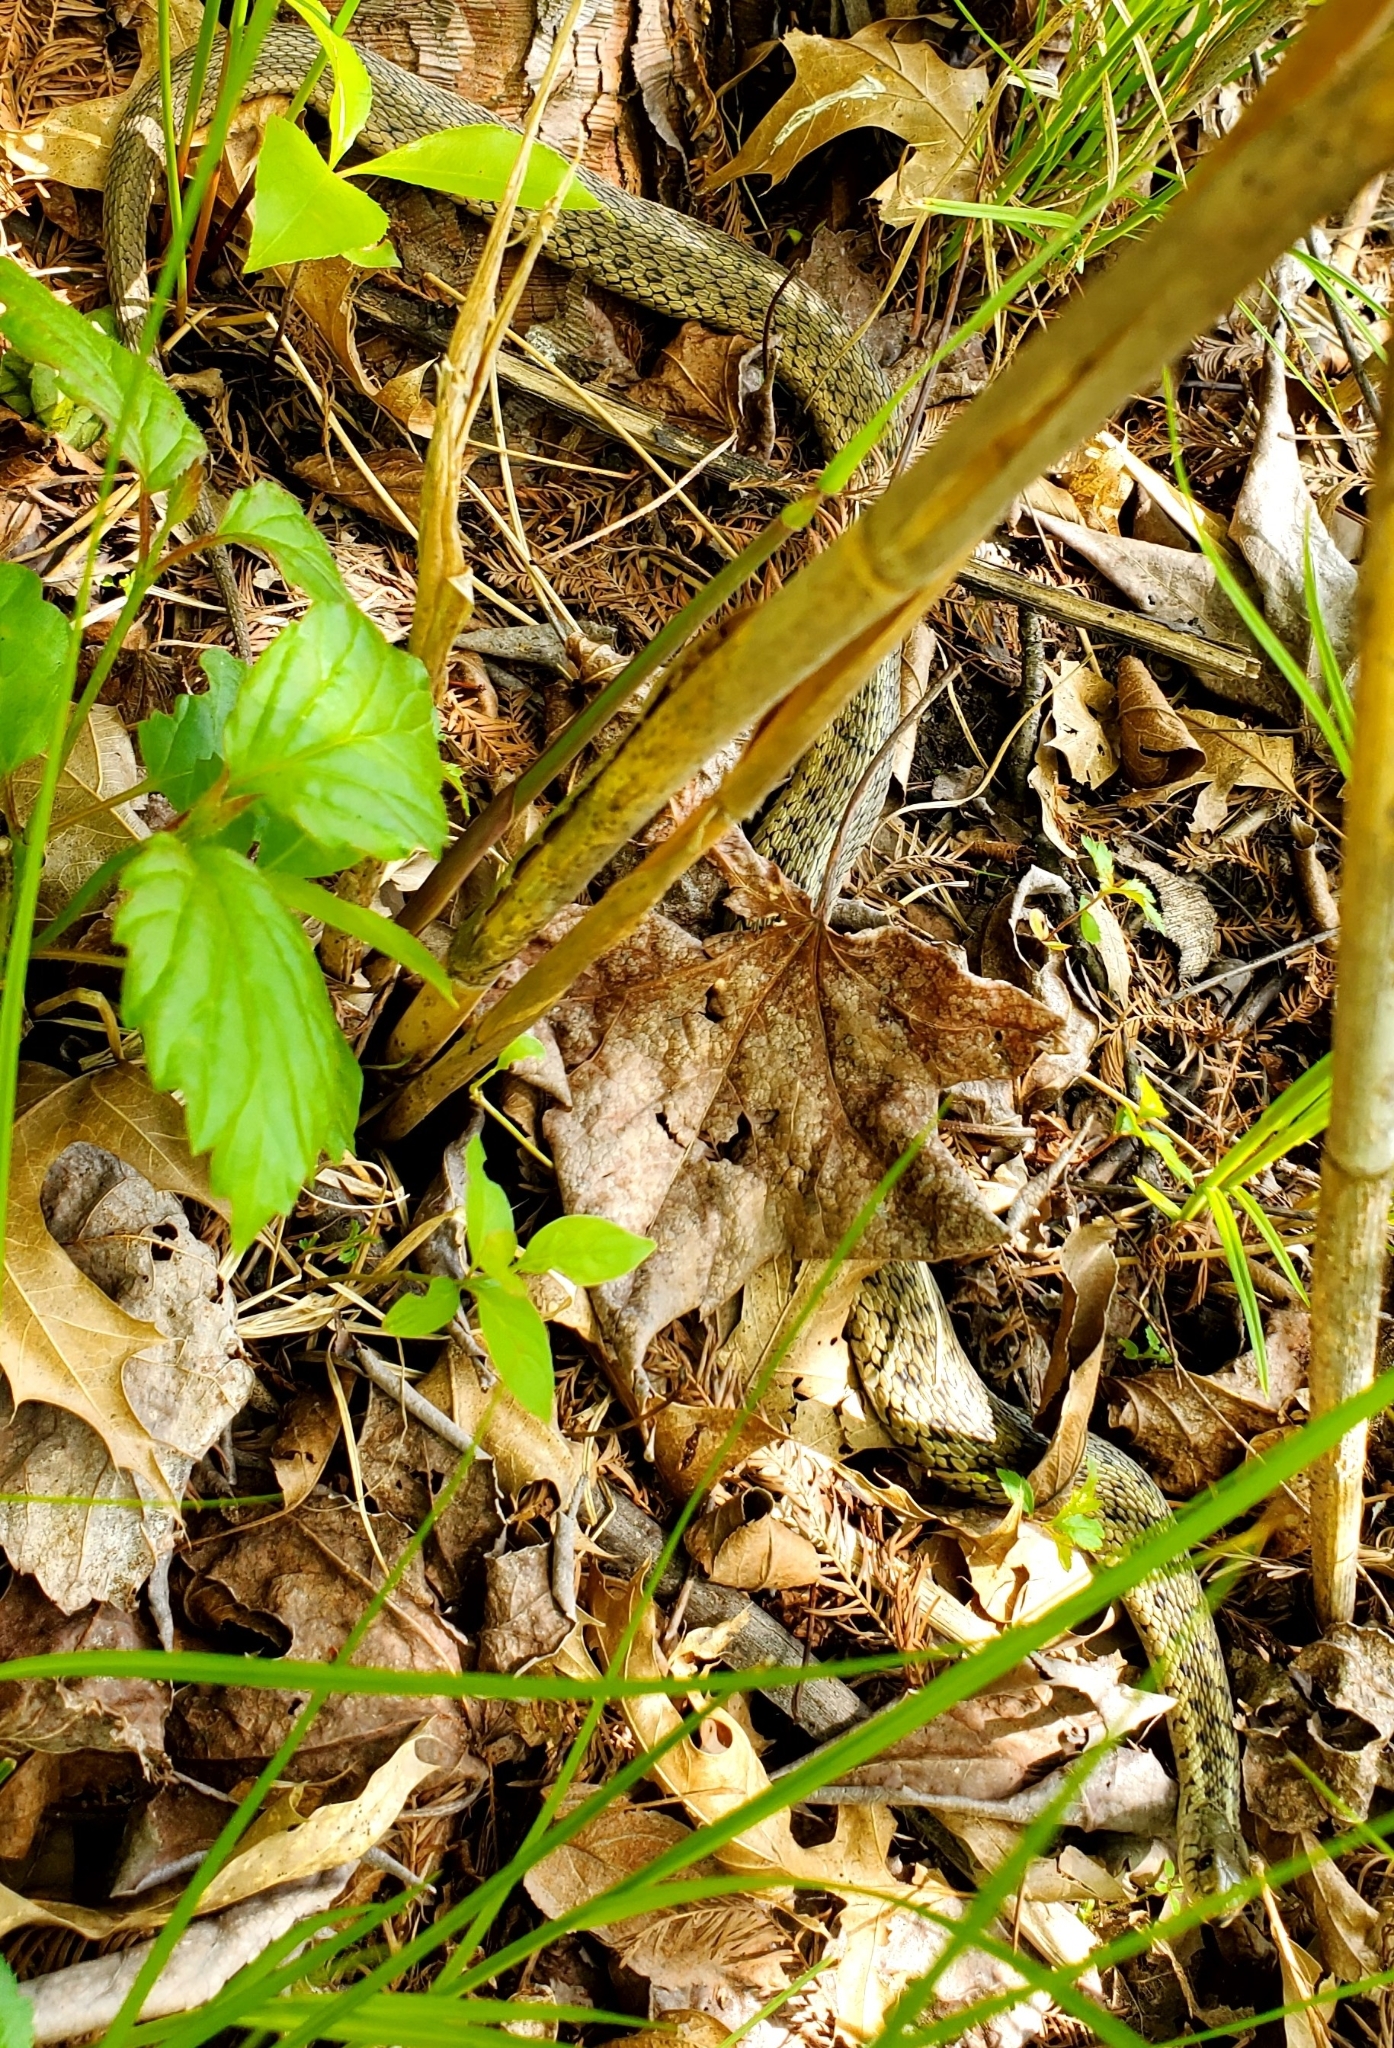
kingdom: Animalia
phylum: Chordata
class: Squamata
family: Colubridae
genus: Thamnophis
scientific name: Thamnophis sirtalis
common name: Common garter snake
